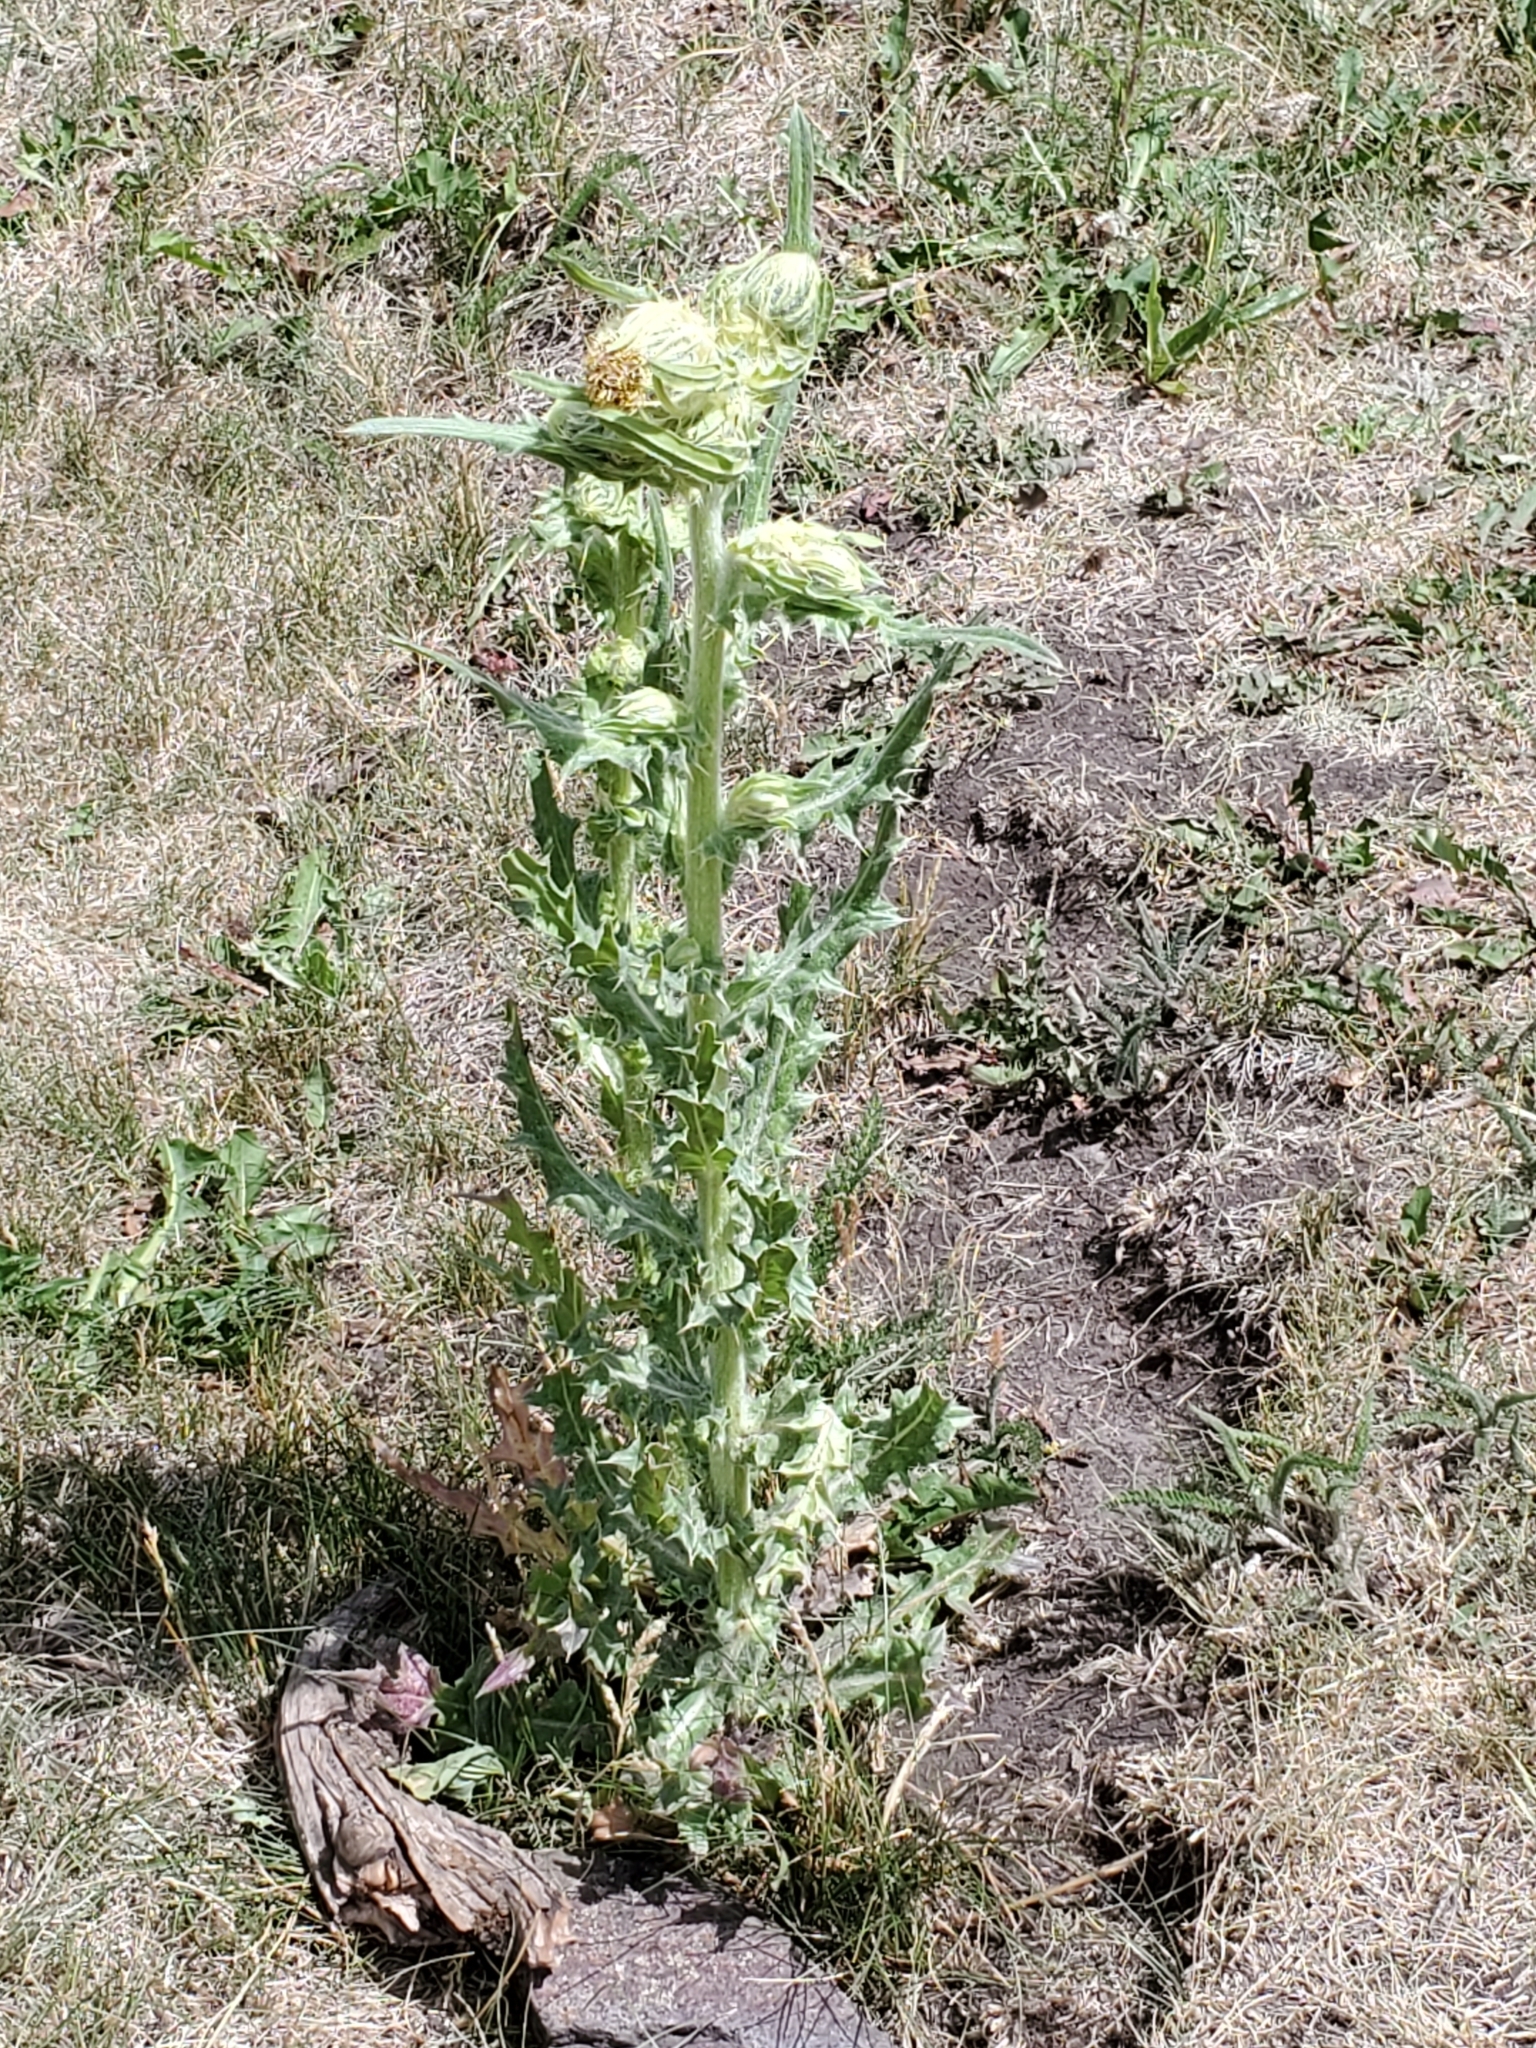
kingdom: Plantae
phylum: Tracheophyta
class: Magnoliopsida
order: Asterales
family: Asteraceae
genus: Cirsium
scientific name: Cirsium parryi
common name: Parry's thistle
